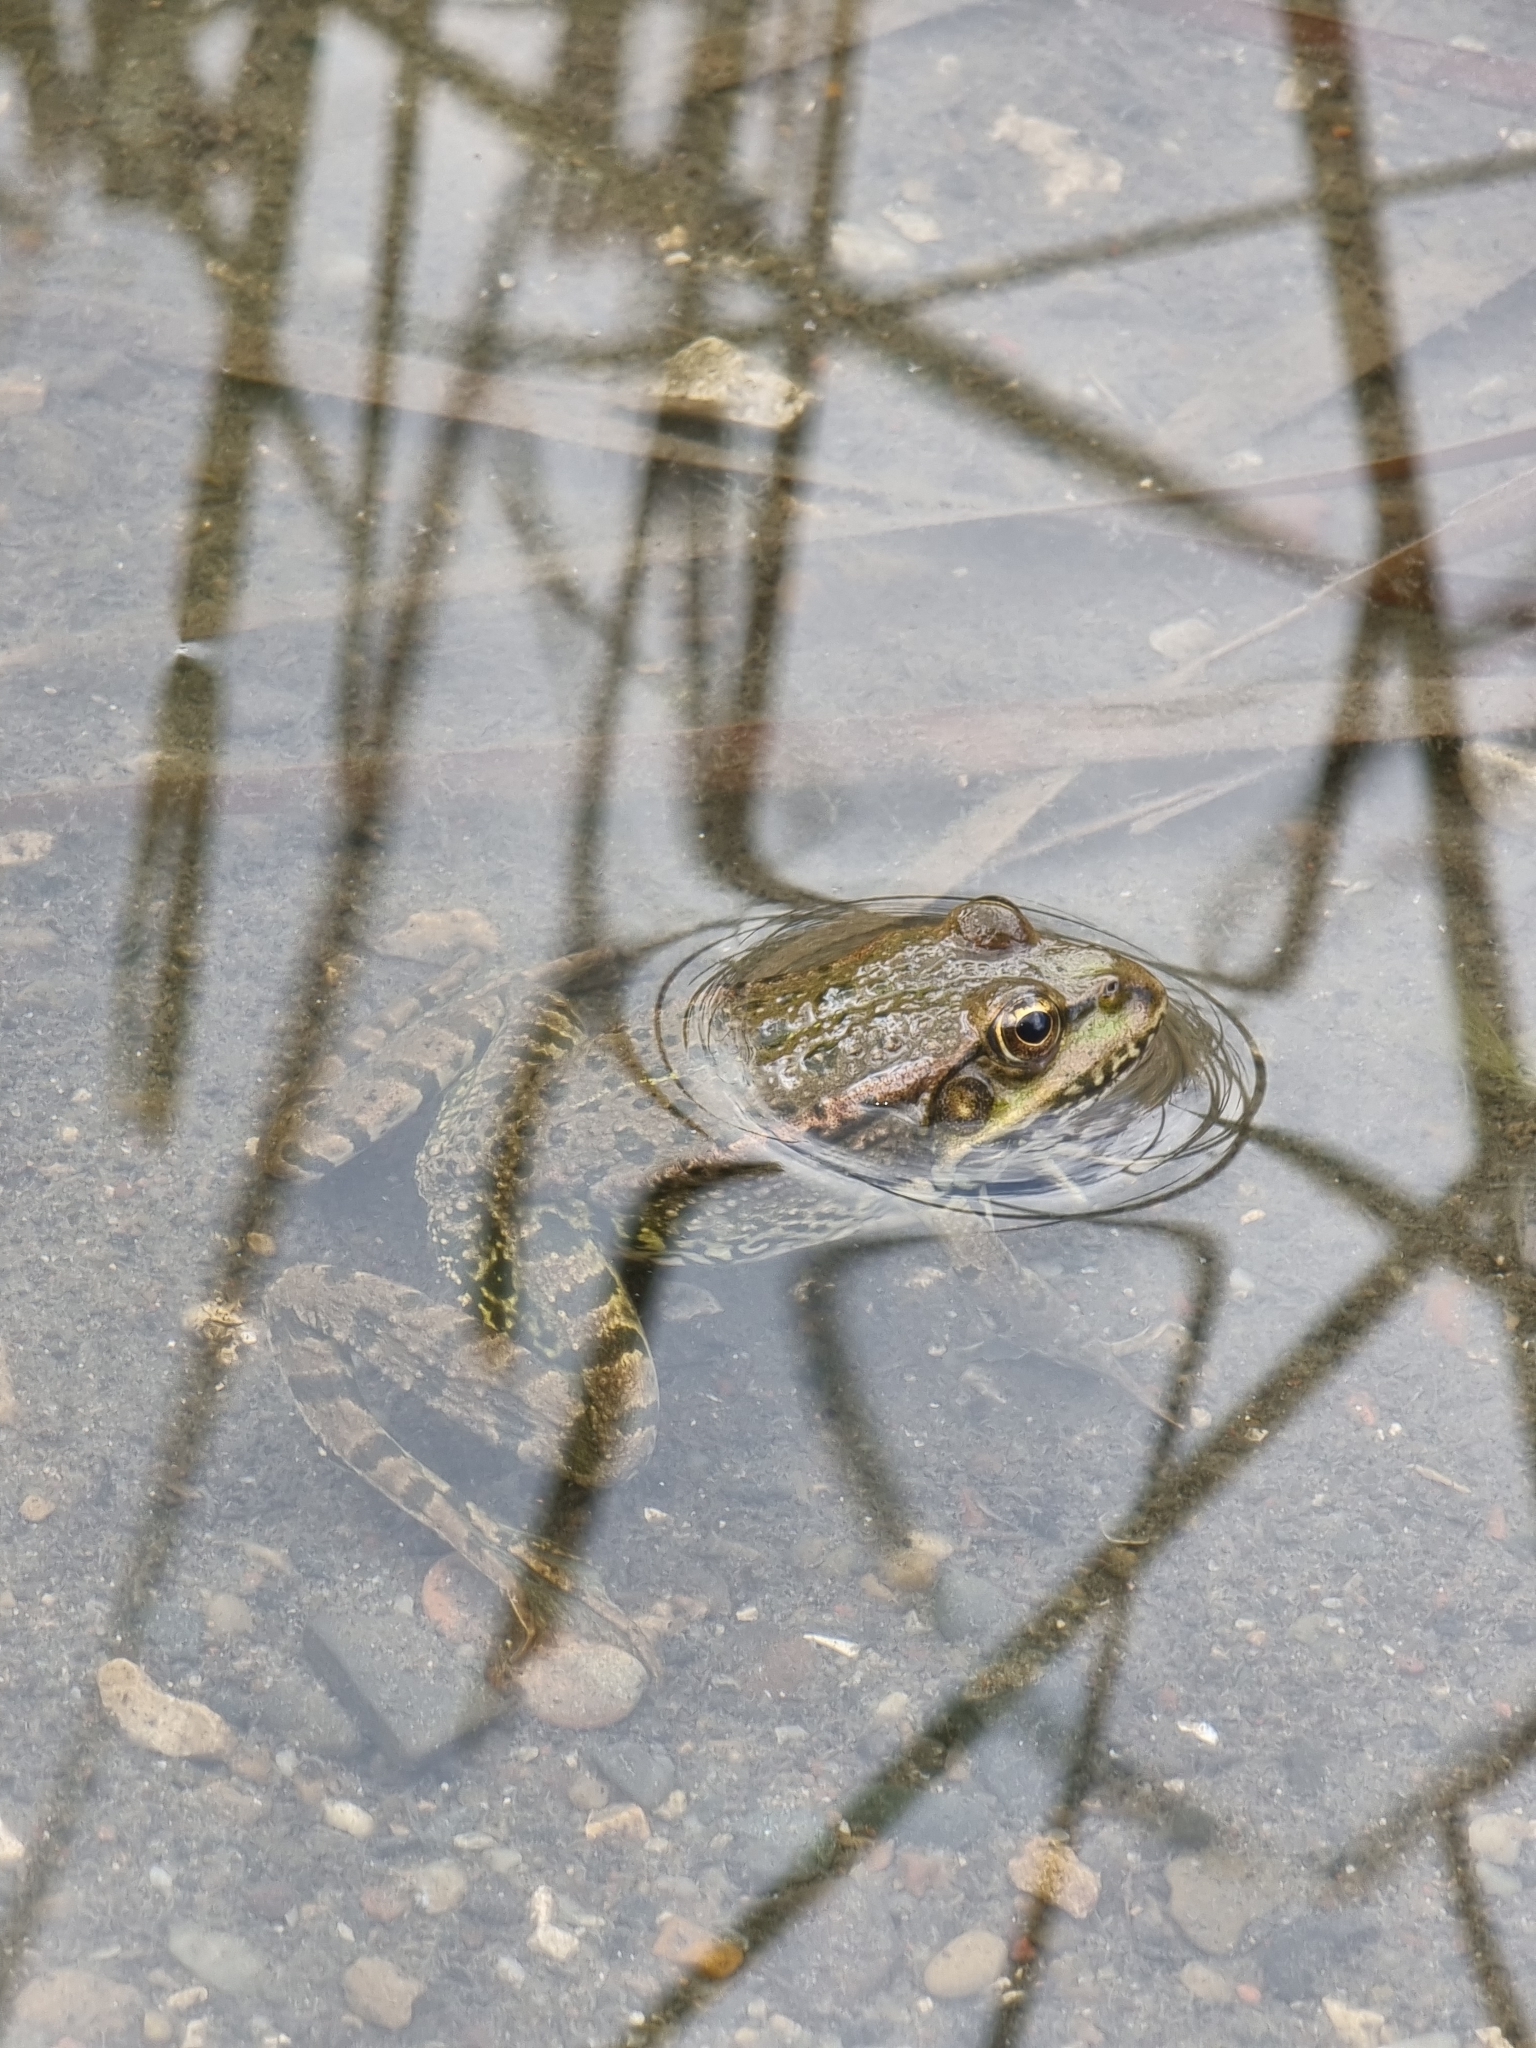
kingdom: Animalia
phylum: Chordata
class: Amphibia
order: Anura
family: Ranidae
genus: Pelophylax
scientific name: Pelophylax ridibundus
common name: Marsh frog
